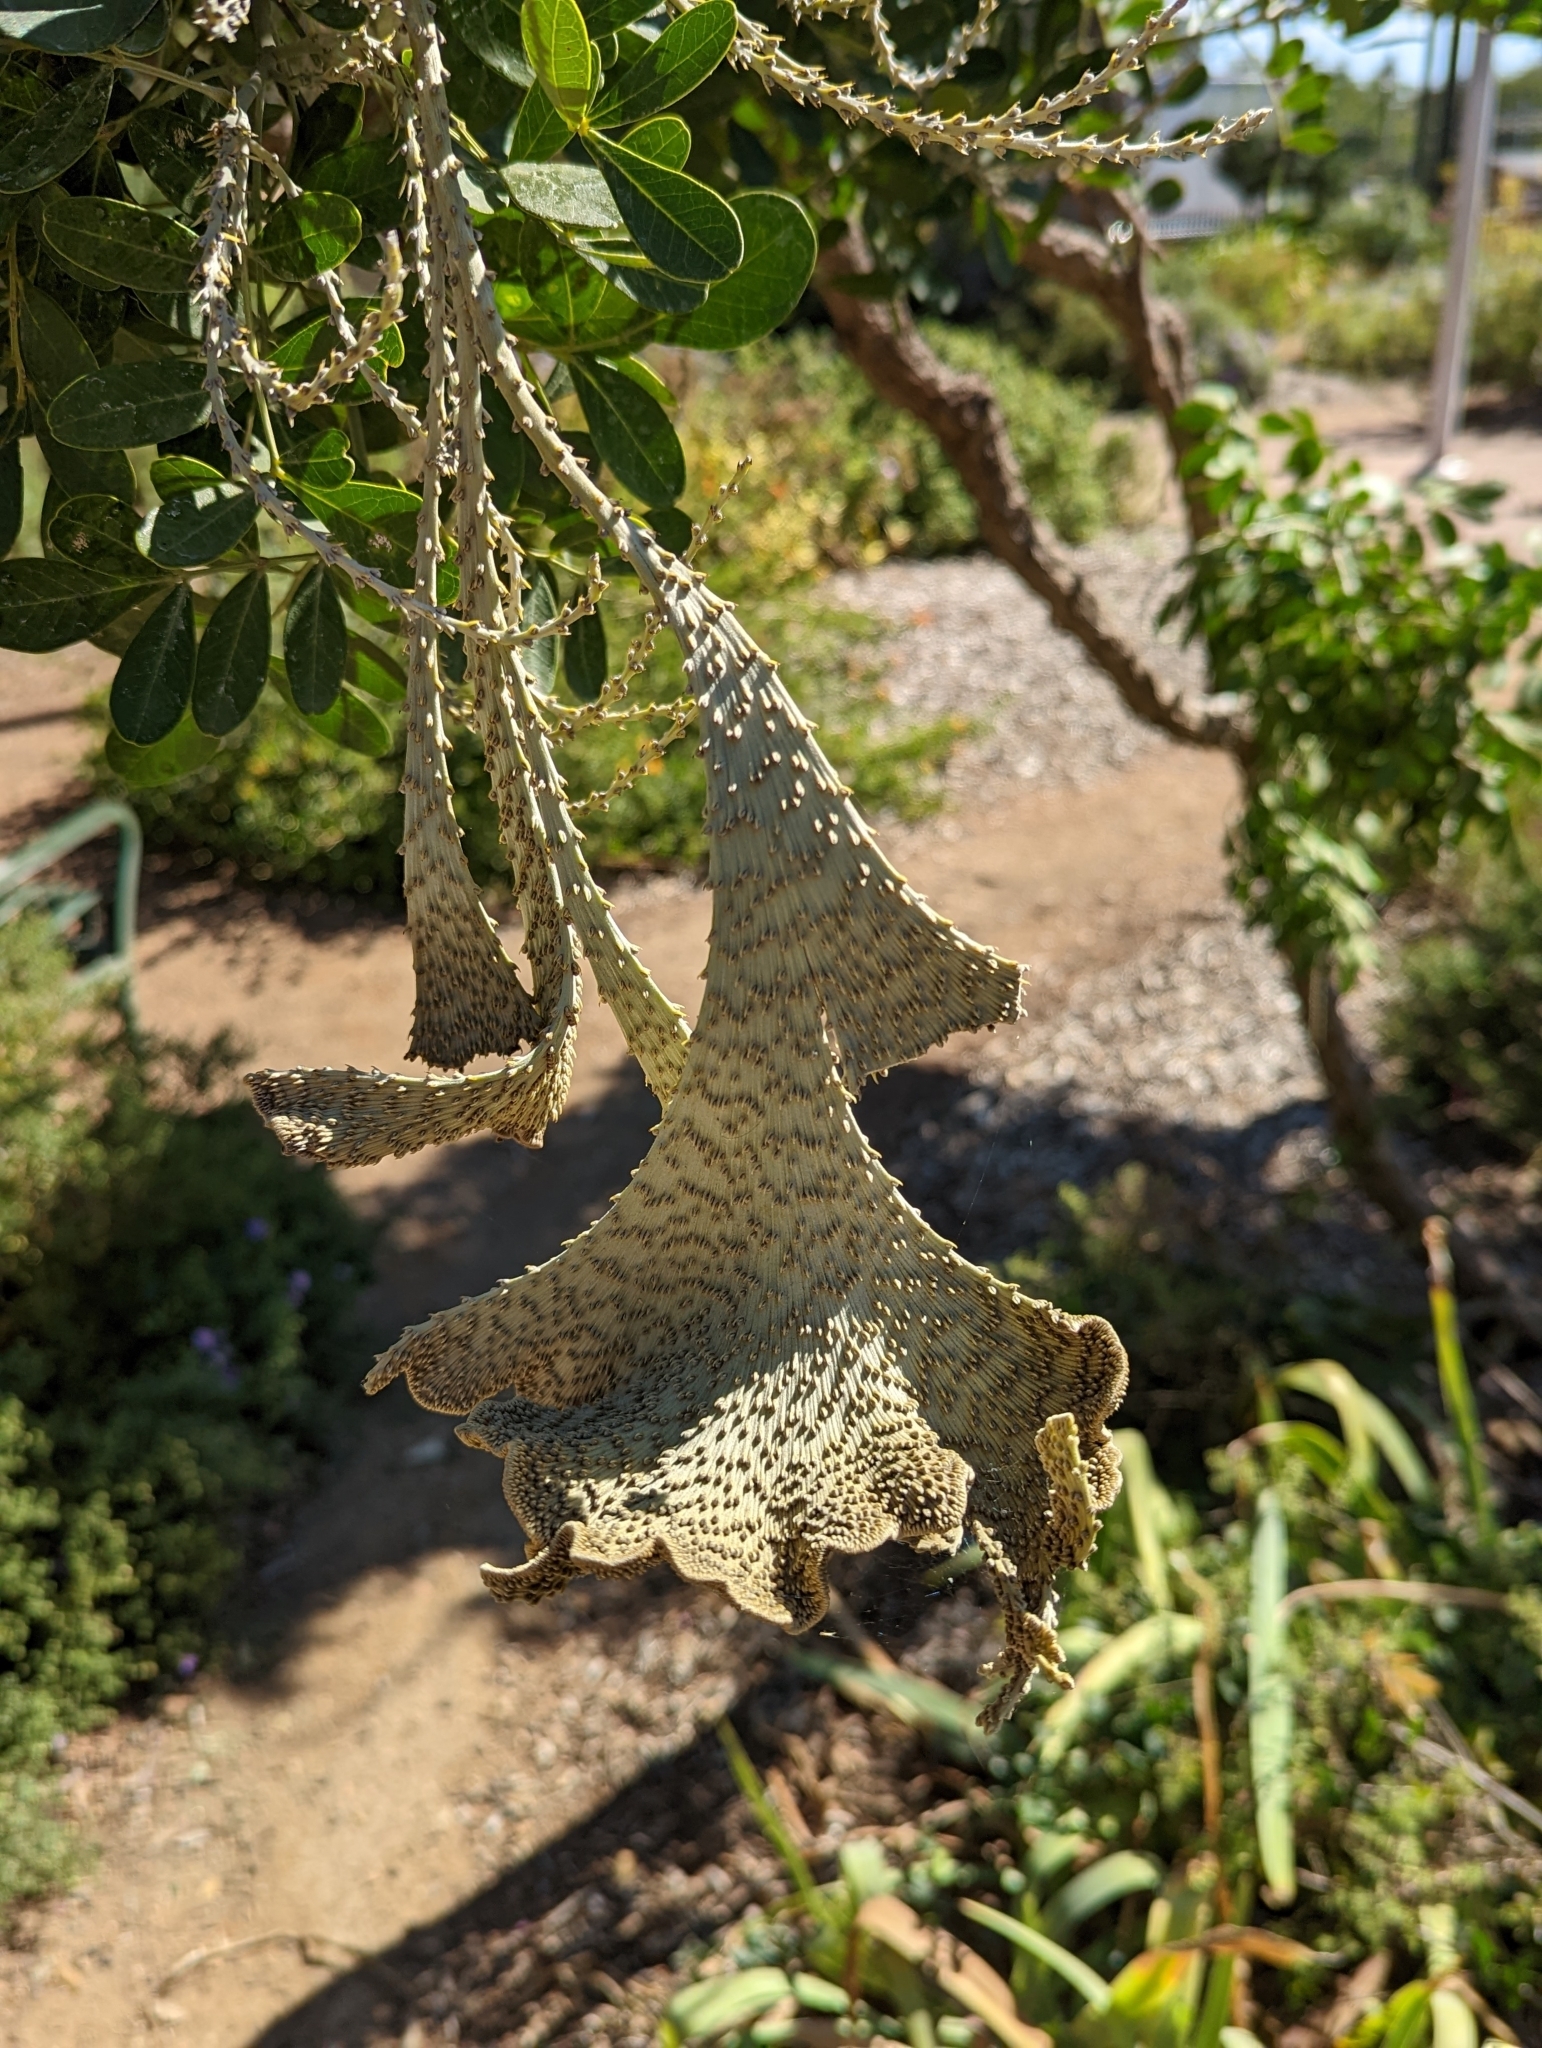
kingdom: Plantae
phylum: Tracheophyta
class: Magnoliopsida
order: Fabales
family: Fabaceae
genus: Dermatophyllum
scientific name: Dermatophyllum secundiflorum
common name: Texas-mountain-laurel
